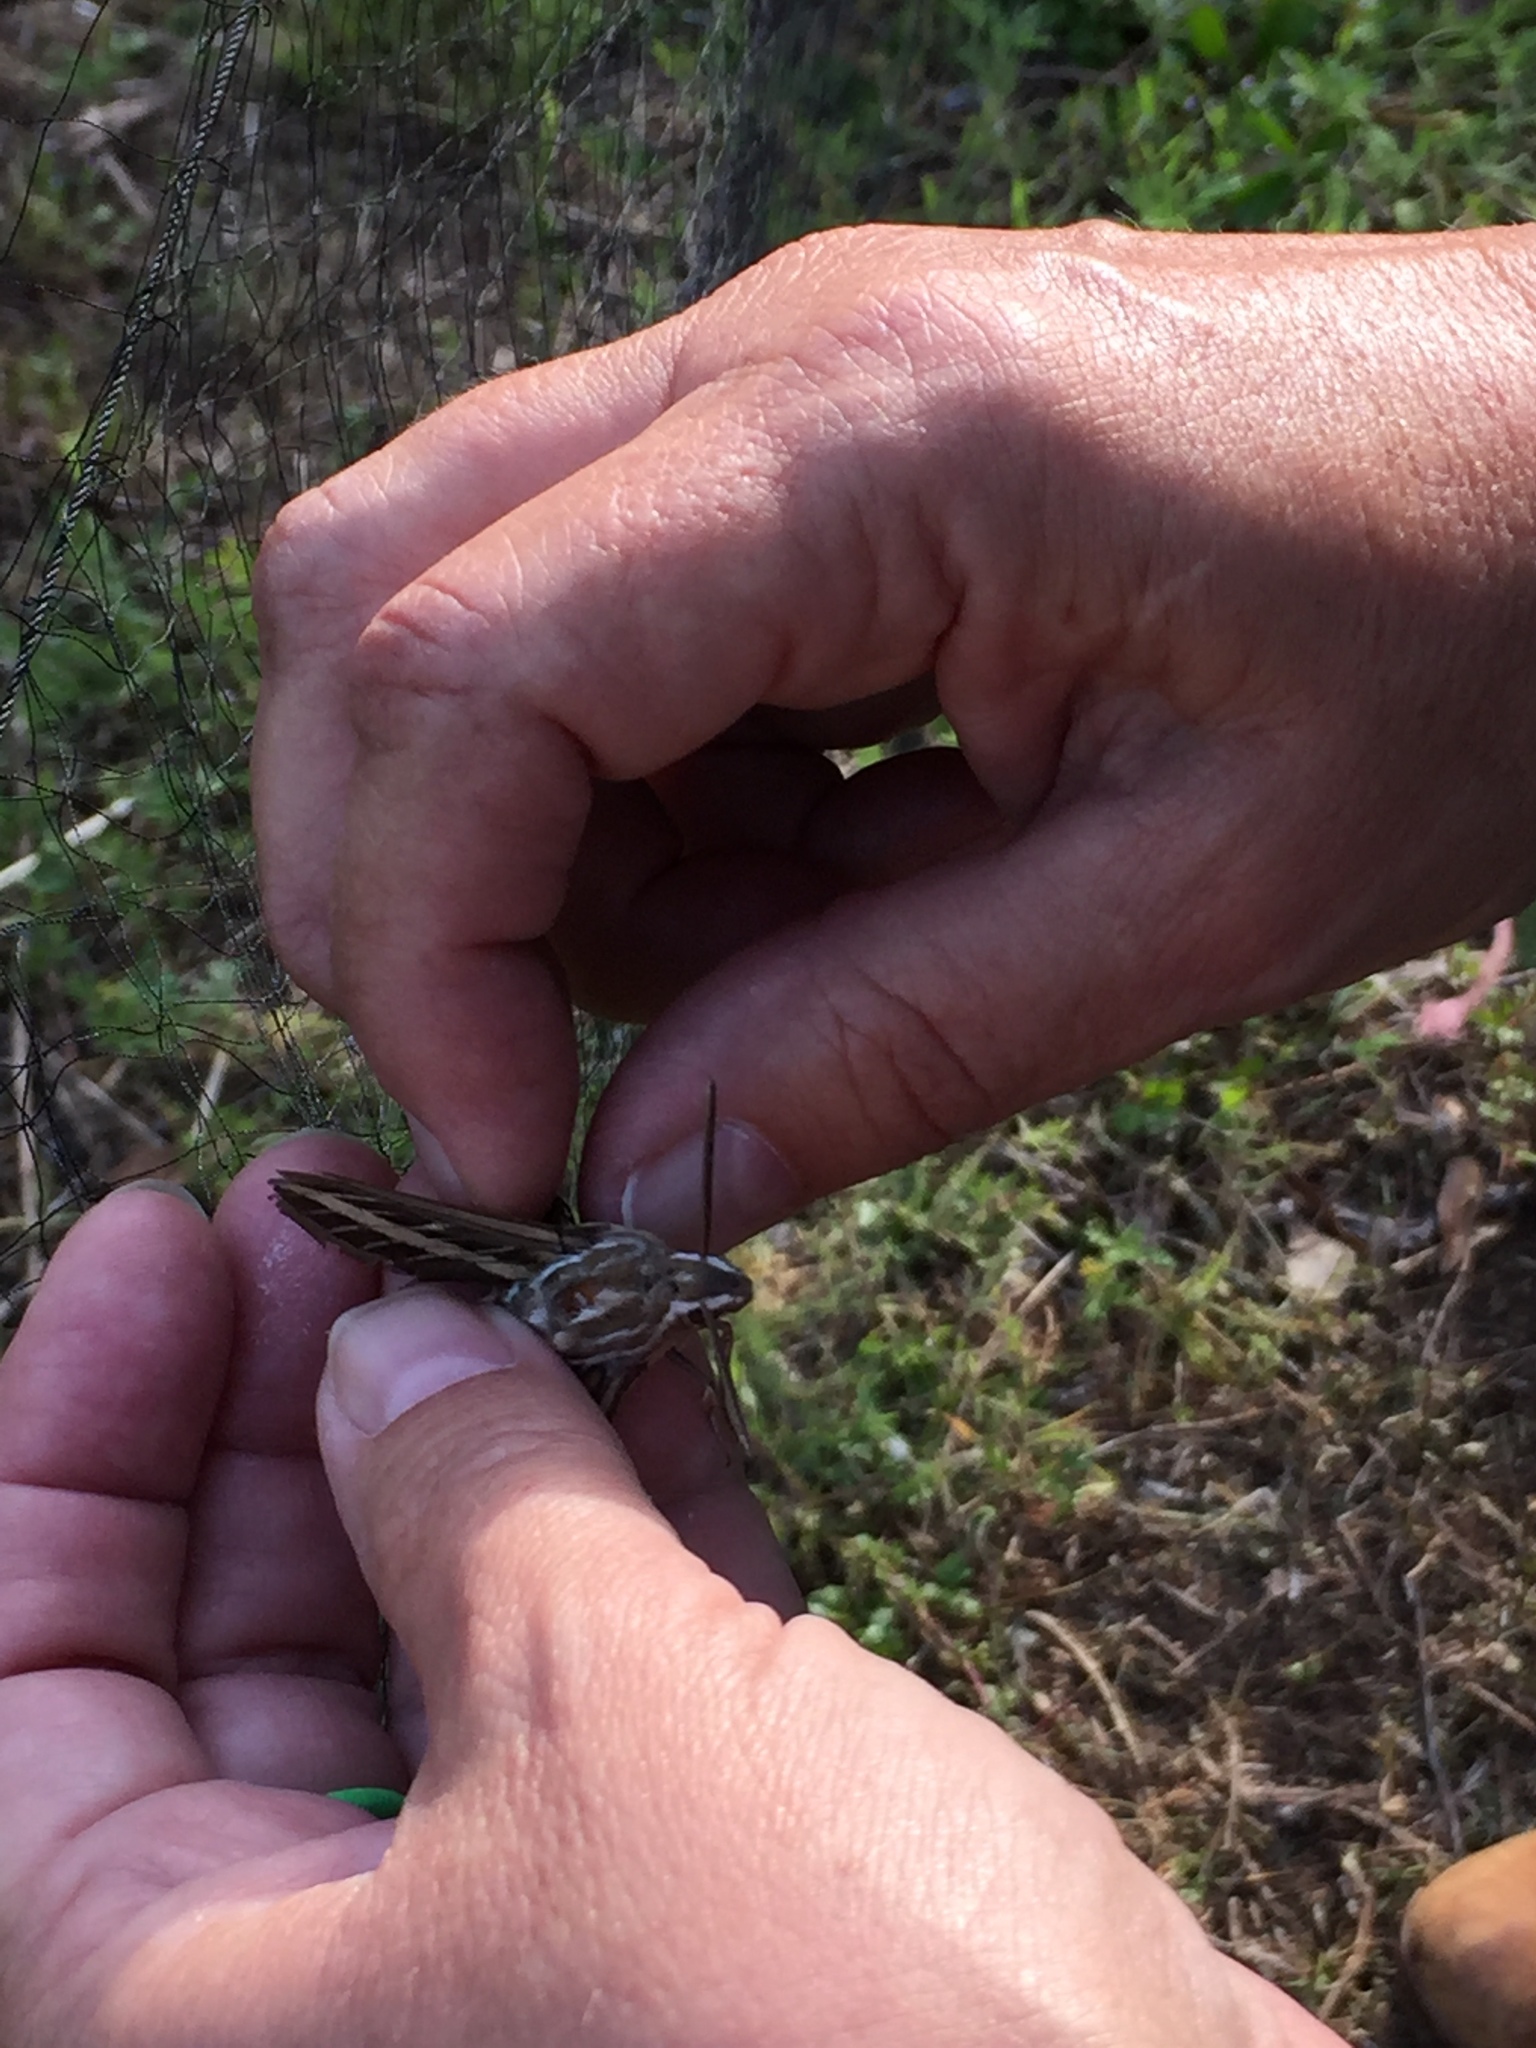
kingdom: Animalia
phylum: Arthropoda
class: Insecta
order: Lepidoptera
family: Sphingidae
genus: Hyles
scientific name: Hyles lineata
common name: White-lined sphinx
